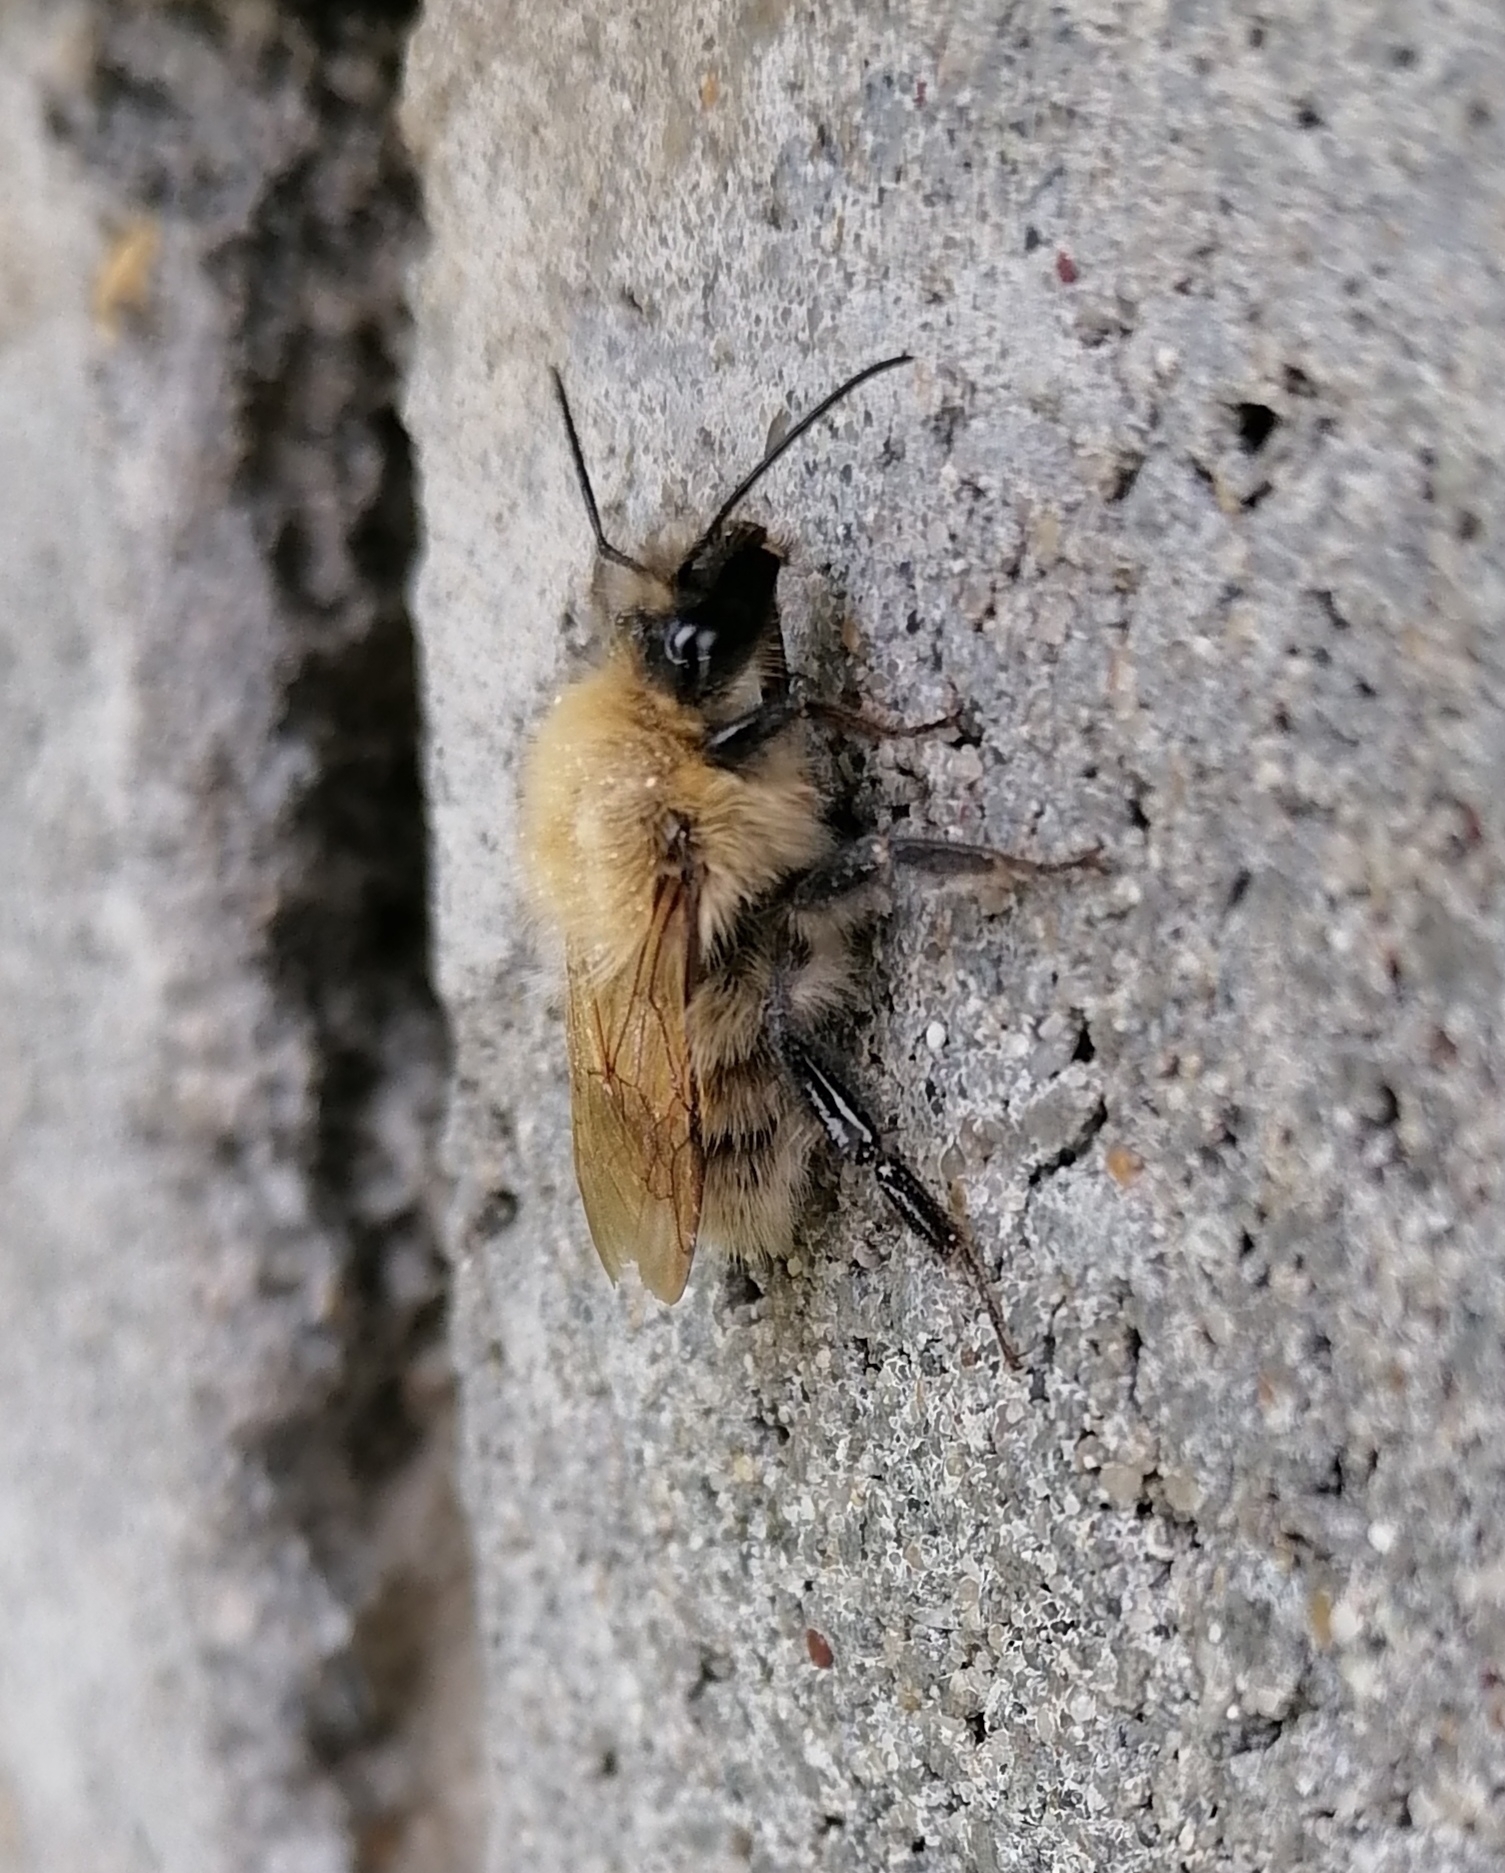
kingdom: Animalia
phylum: Arthropoda
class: Insecta
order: Hymenoptera
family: Apidae
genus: Bombus
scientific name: Bombus consobrinus
